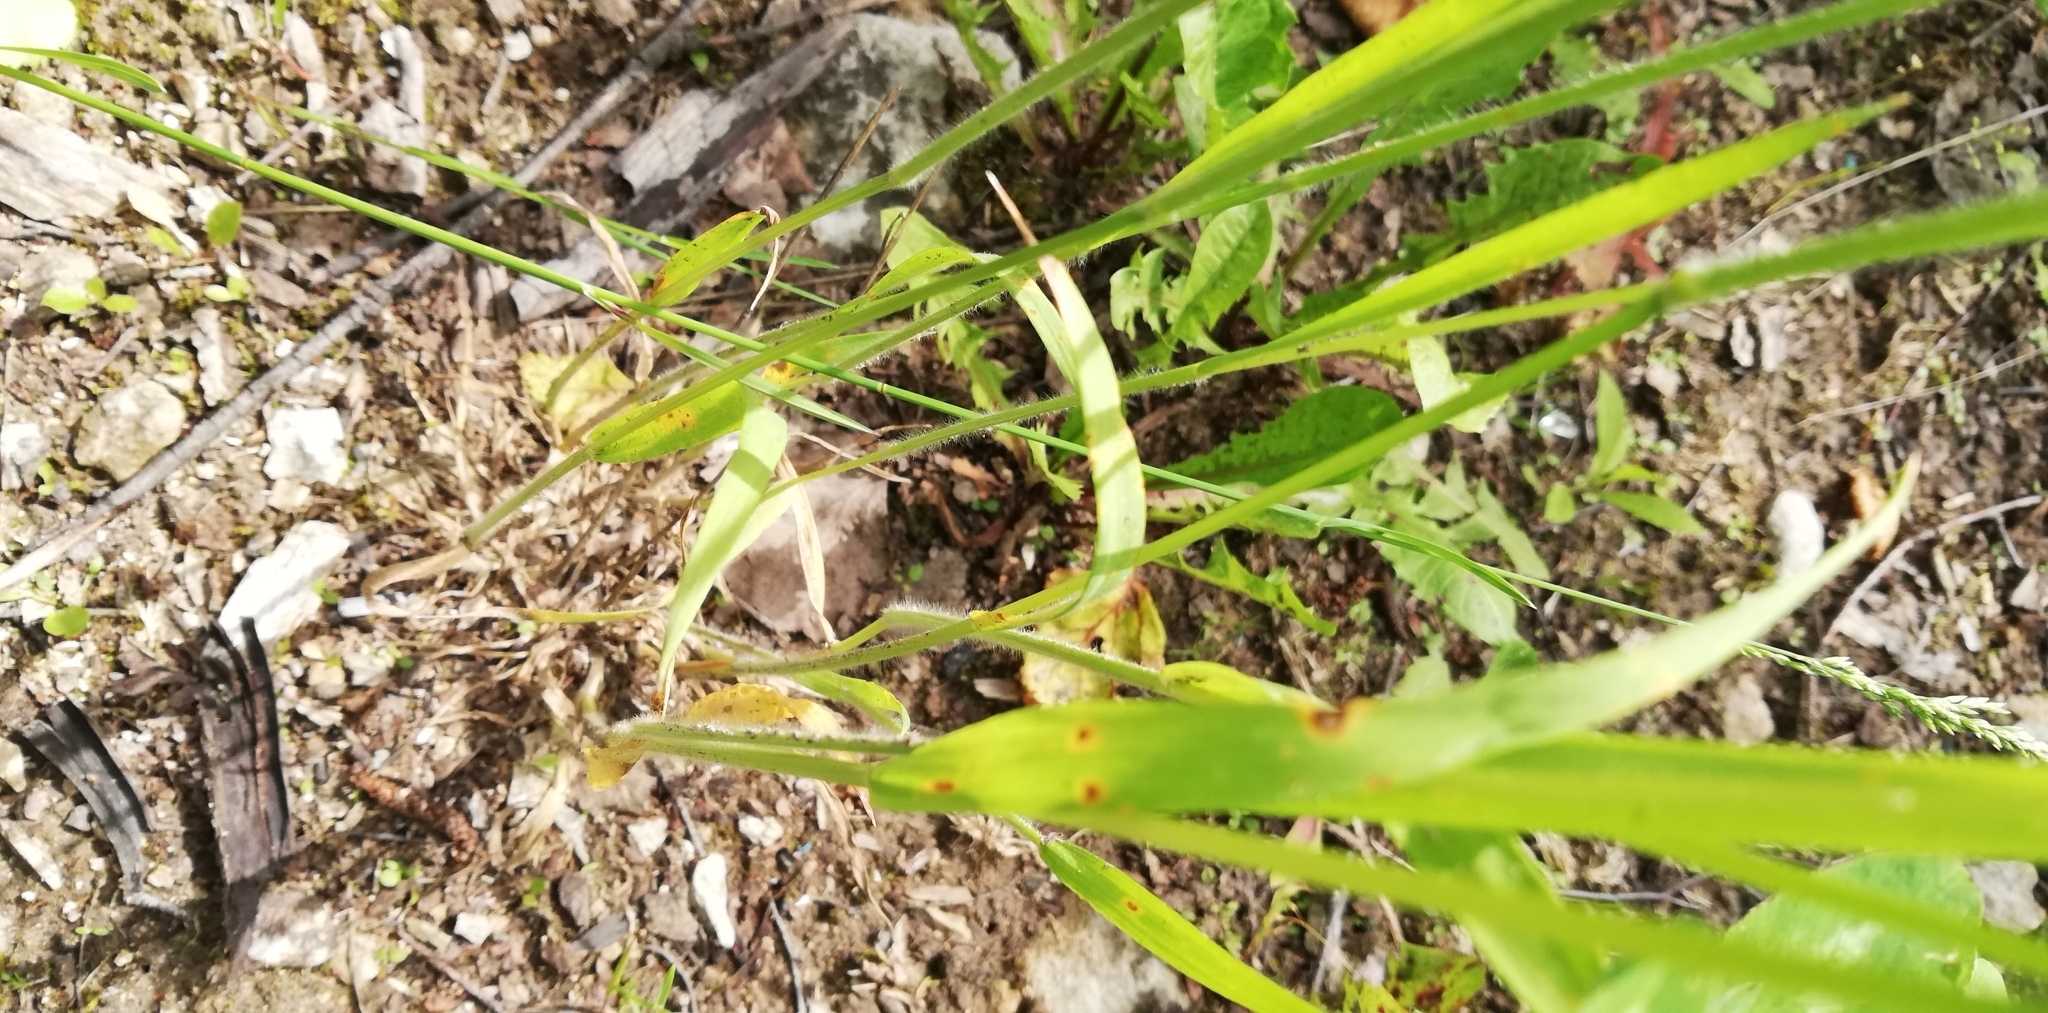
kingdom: Plantae
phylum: Tracheophyta
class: Liliopsida
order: Poales
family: Poaceae
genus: Trisetum
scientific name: Trisetum flavescens
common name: Yellow oat-grass
